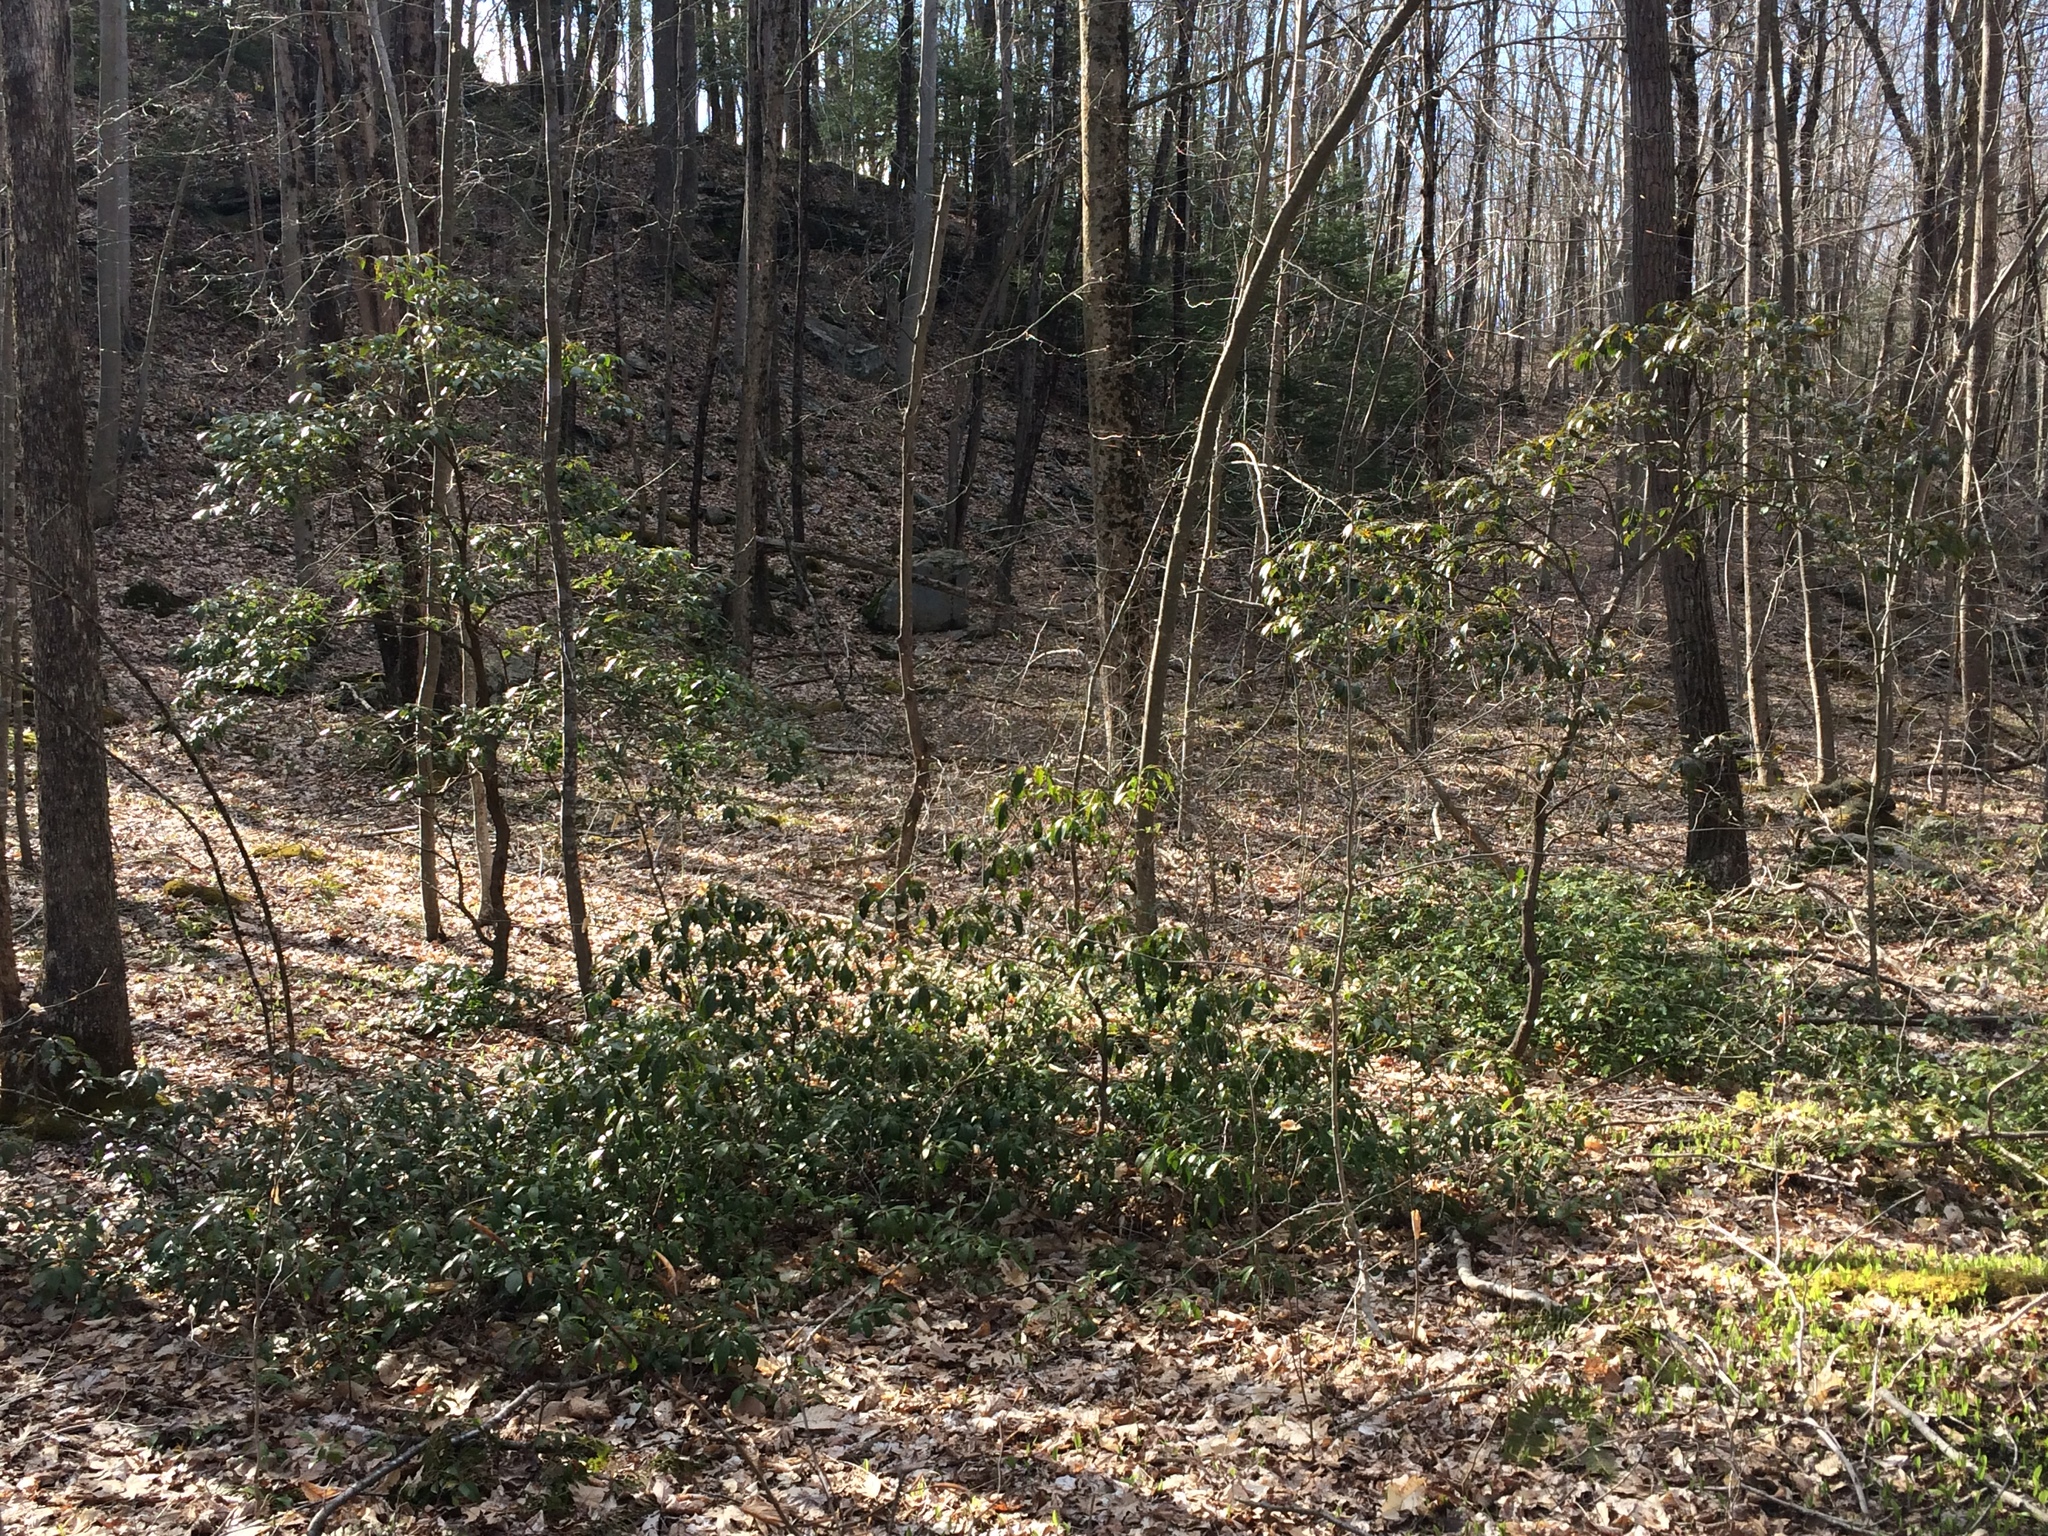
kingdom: Plantae
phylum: Tracheophyta
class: Magnoliopsida
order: Ericales
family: Ericaceae
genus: Kalmia
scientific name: Kalmia latifolia
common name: Mountain-laurel
